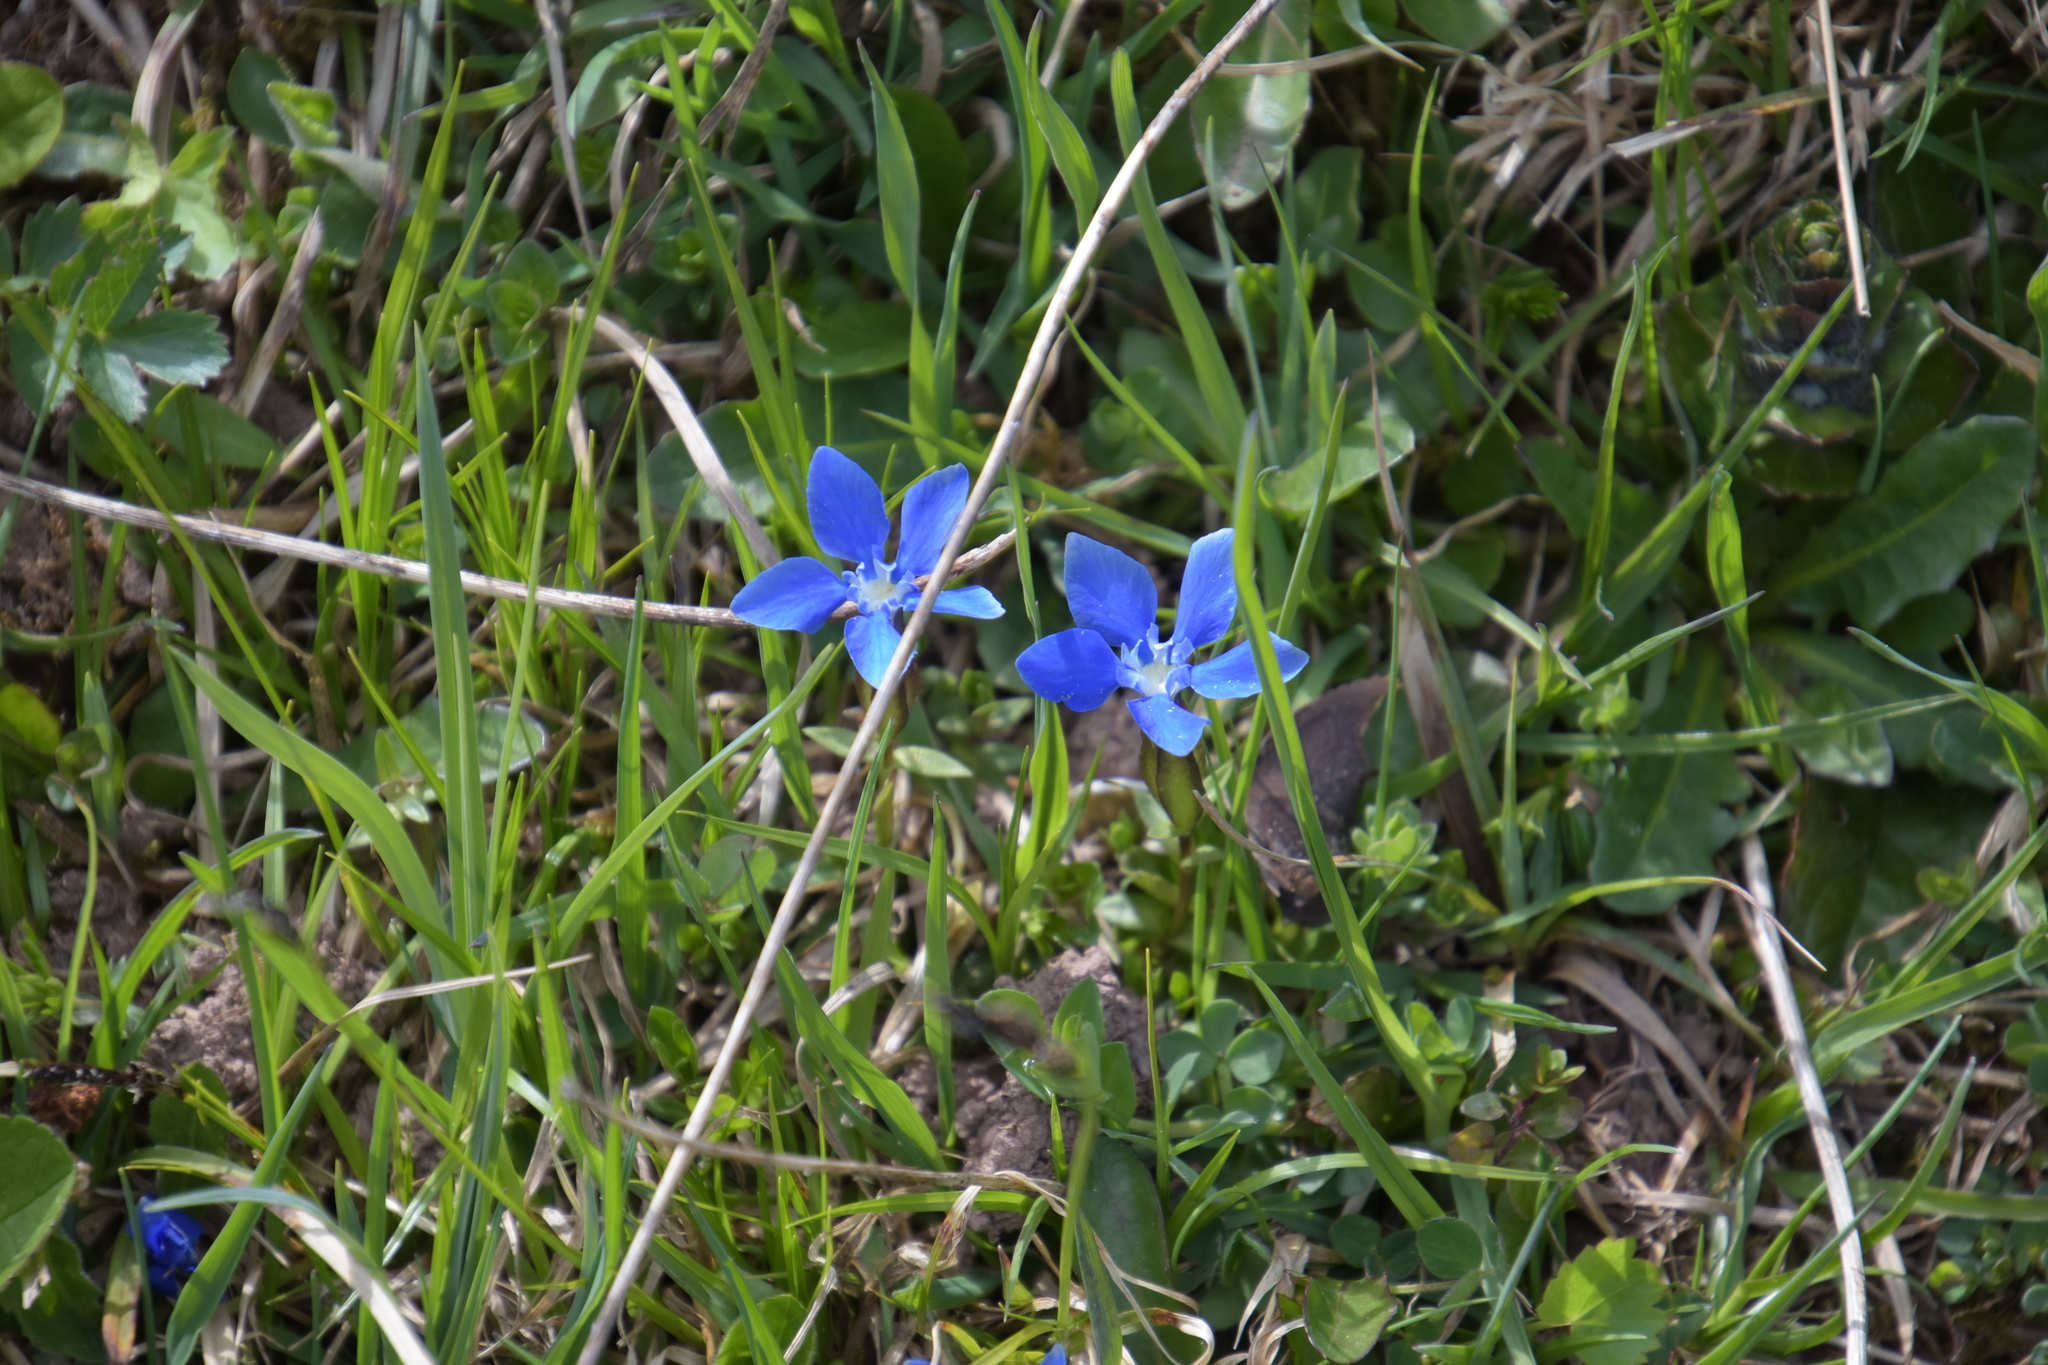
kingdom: Plantae
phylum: Tracheophyta
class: Magnoliopsida
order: Gentianales
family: Gentianaceae
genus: Gentiana
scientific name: Gentiana verna
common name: Spring gentian
